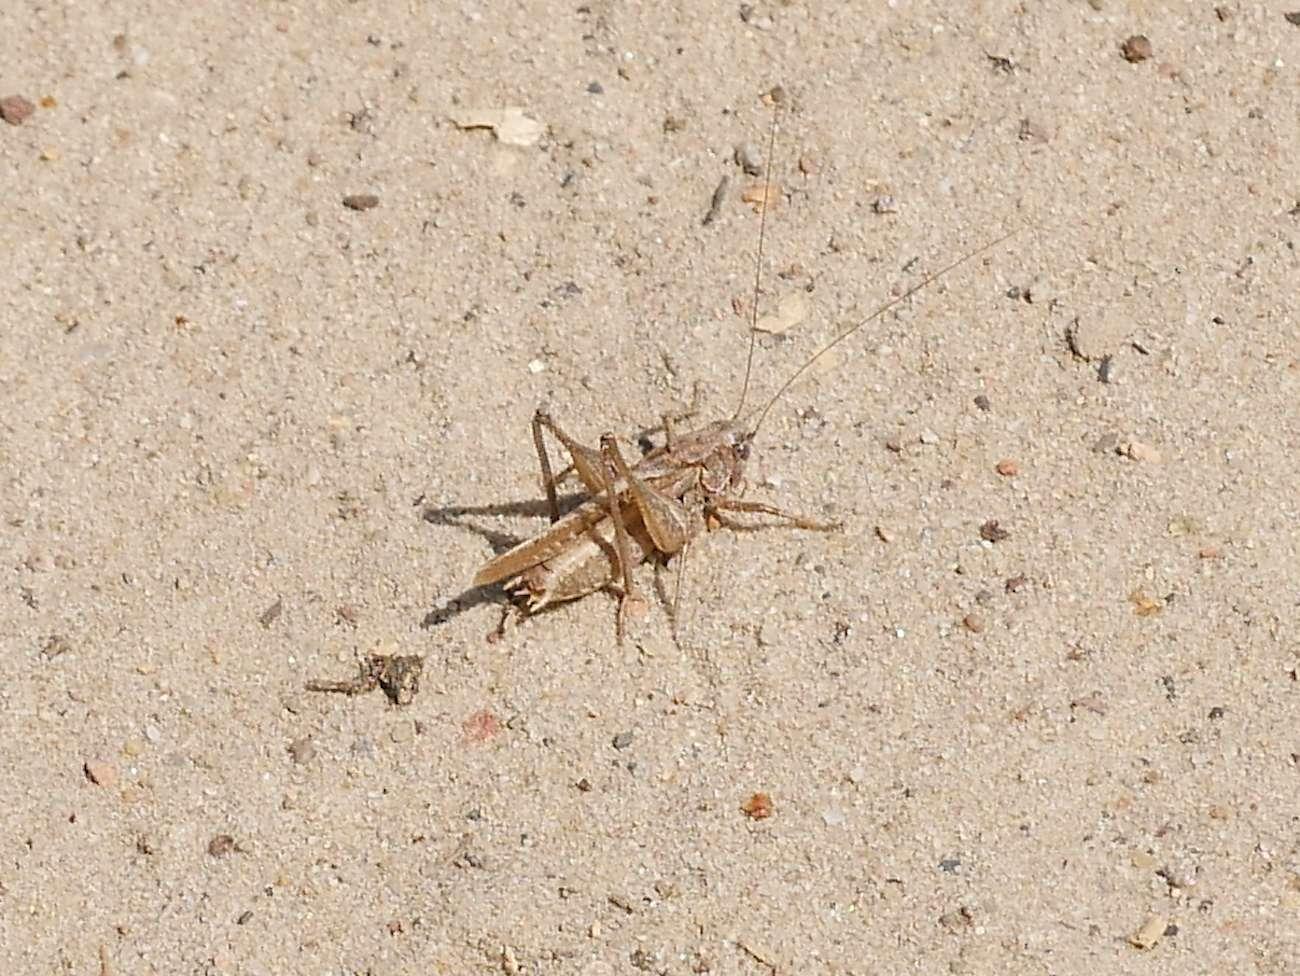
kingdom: Animalia
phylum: Arthropoda
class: Insecta
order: Orthoptera
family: Tettigoniidae
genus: Platycleis
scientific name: Platycleis albopunctata
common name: Grey bush-cricket
